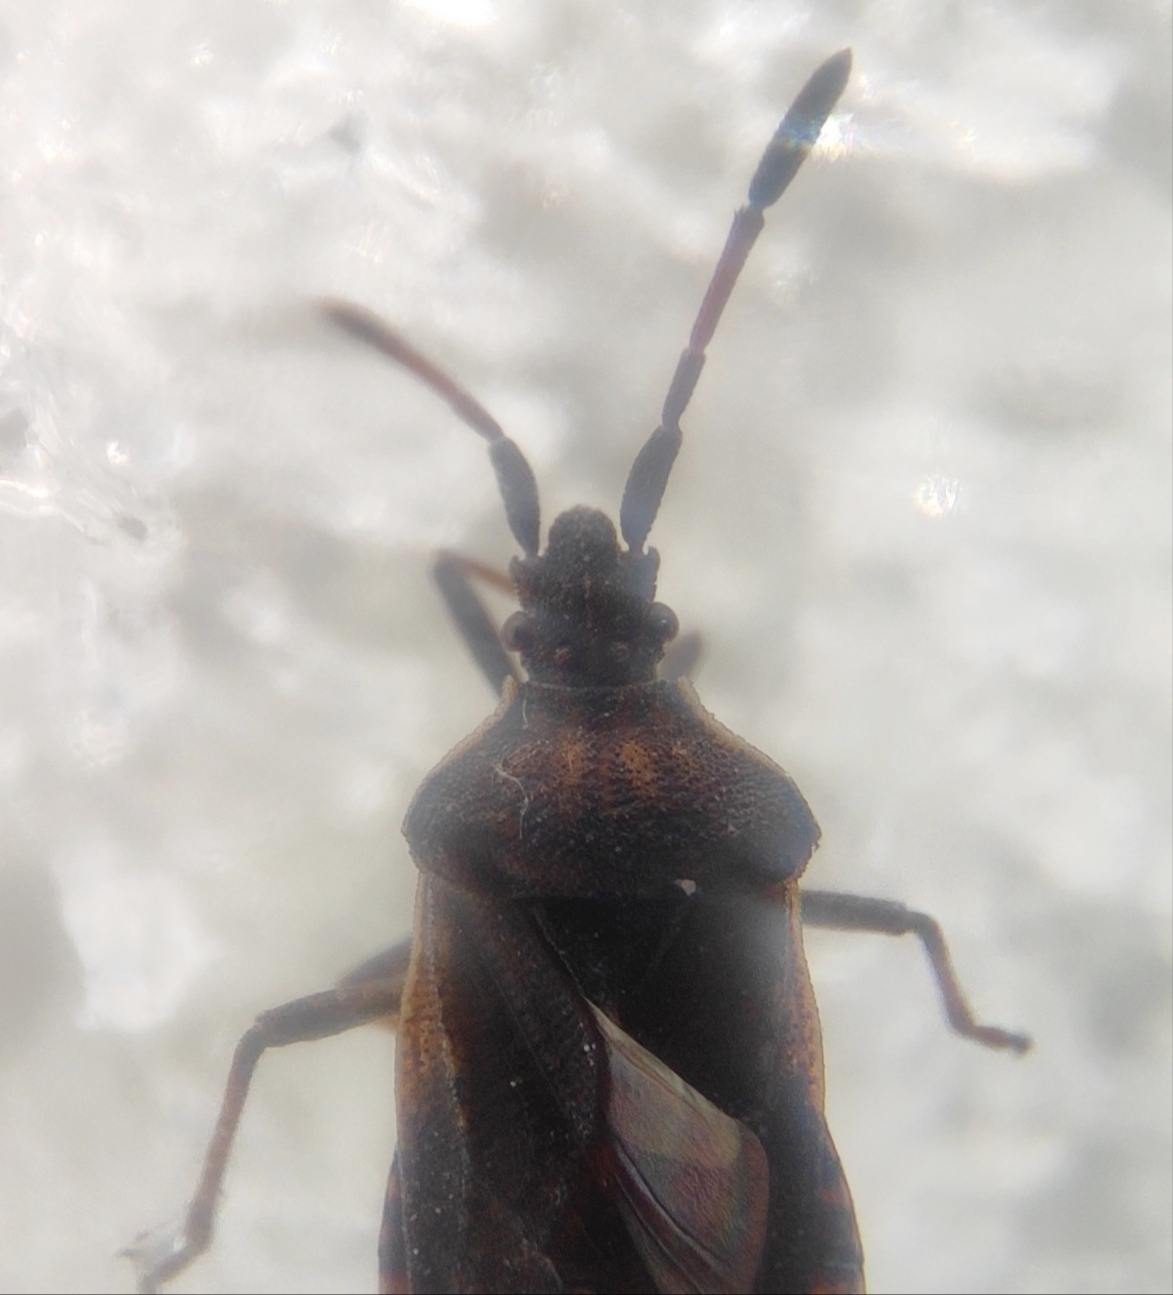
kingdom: Animalia
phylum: Arthropoda
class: Insecta
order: Hemiptera
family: Coreidae
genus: Ulmicola
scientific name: Ulmicola spinipes
